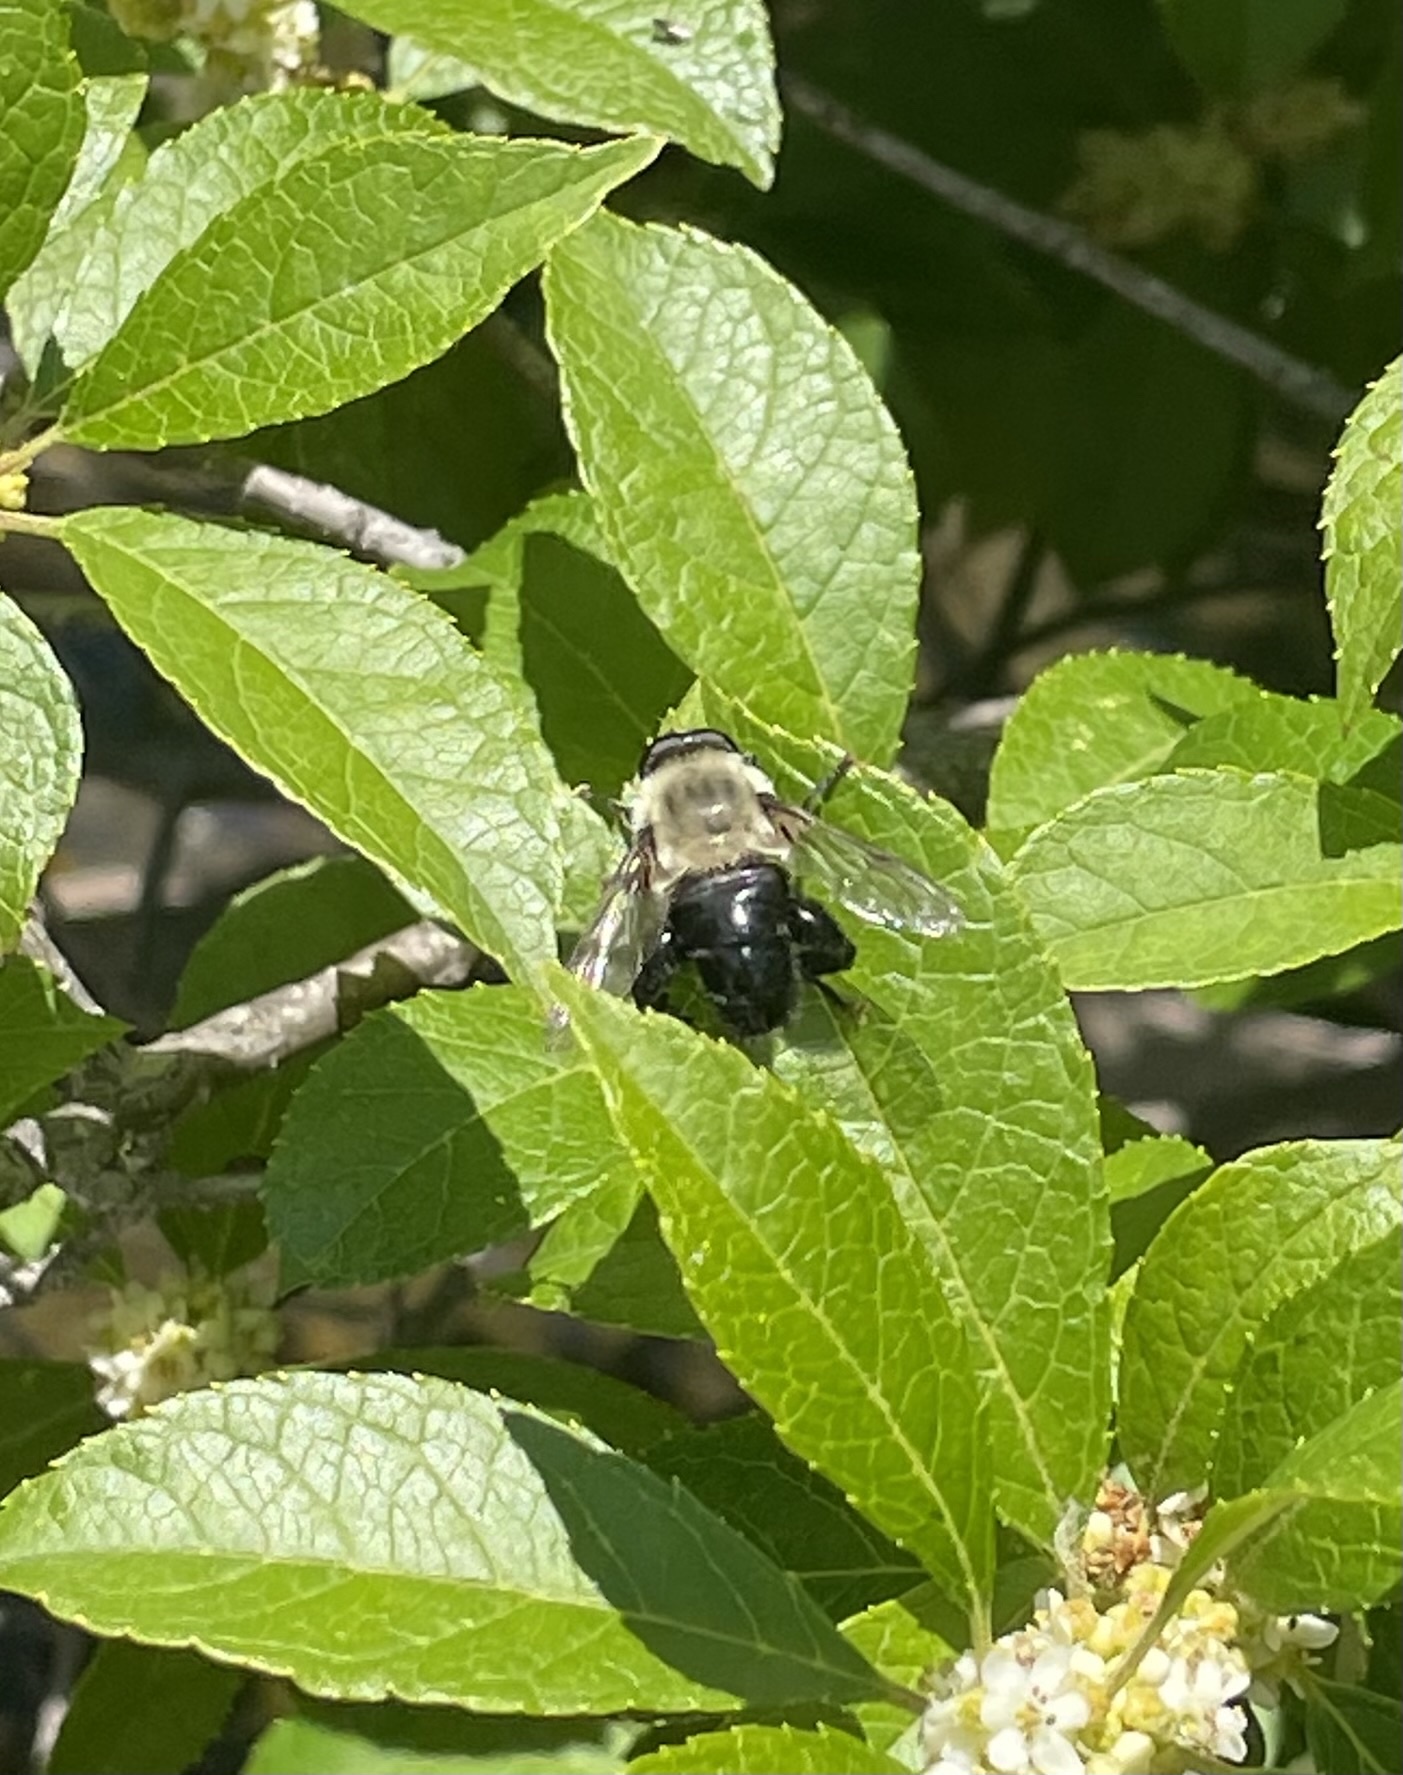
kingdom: Animalia
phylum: Arthropoda
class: Insecta
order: Diptera
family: Syrphidae
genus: Imatisma
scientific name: Imatisma bautias
